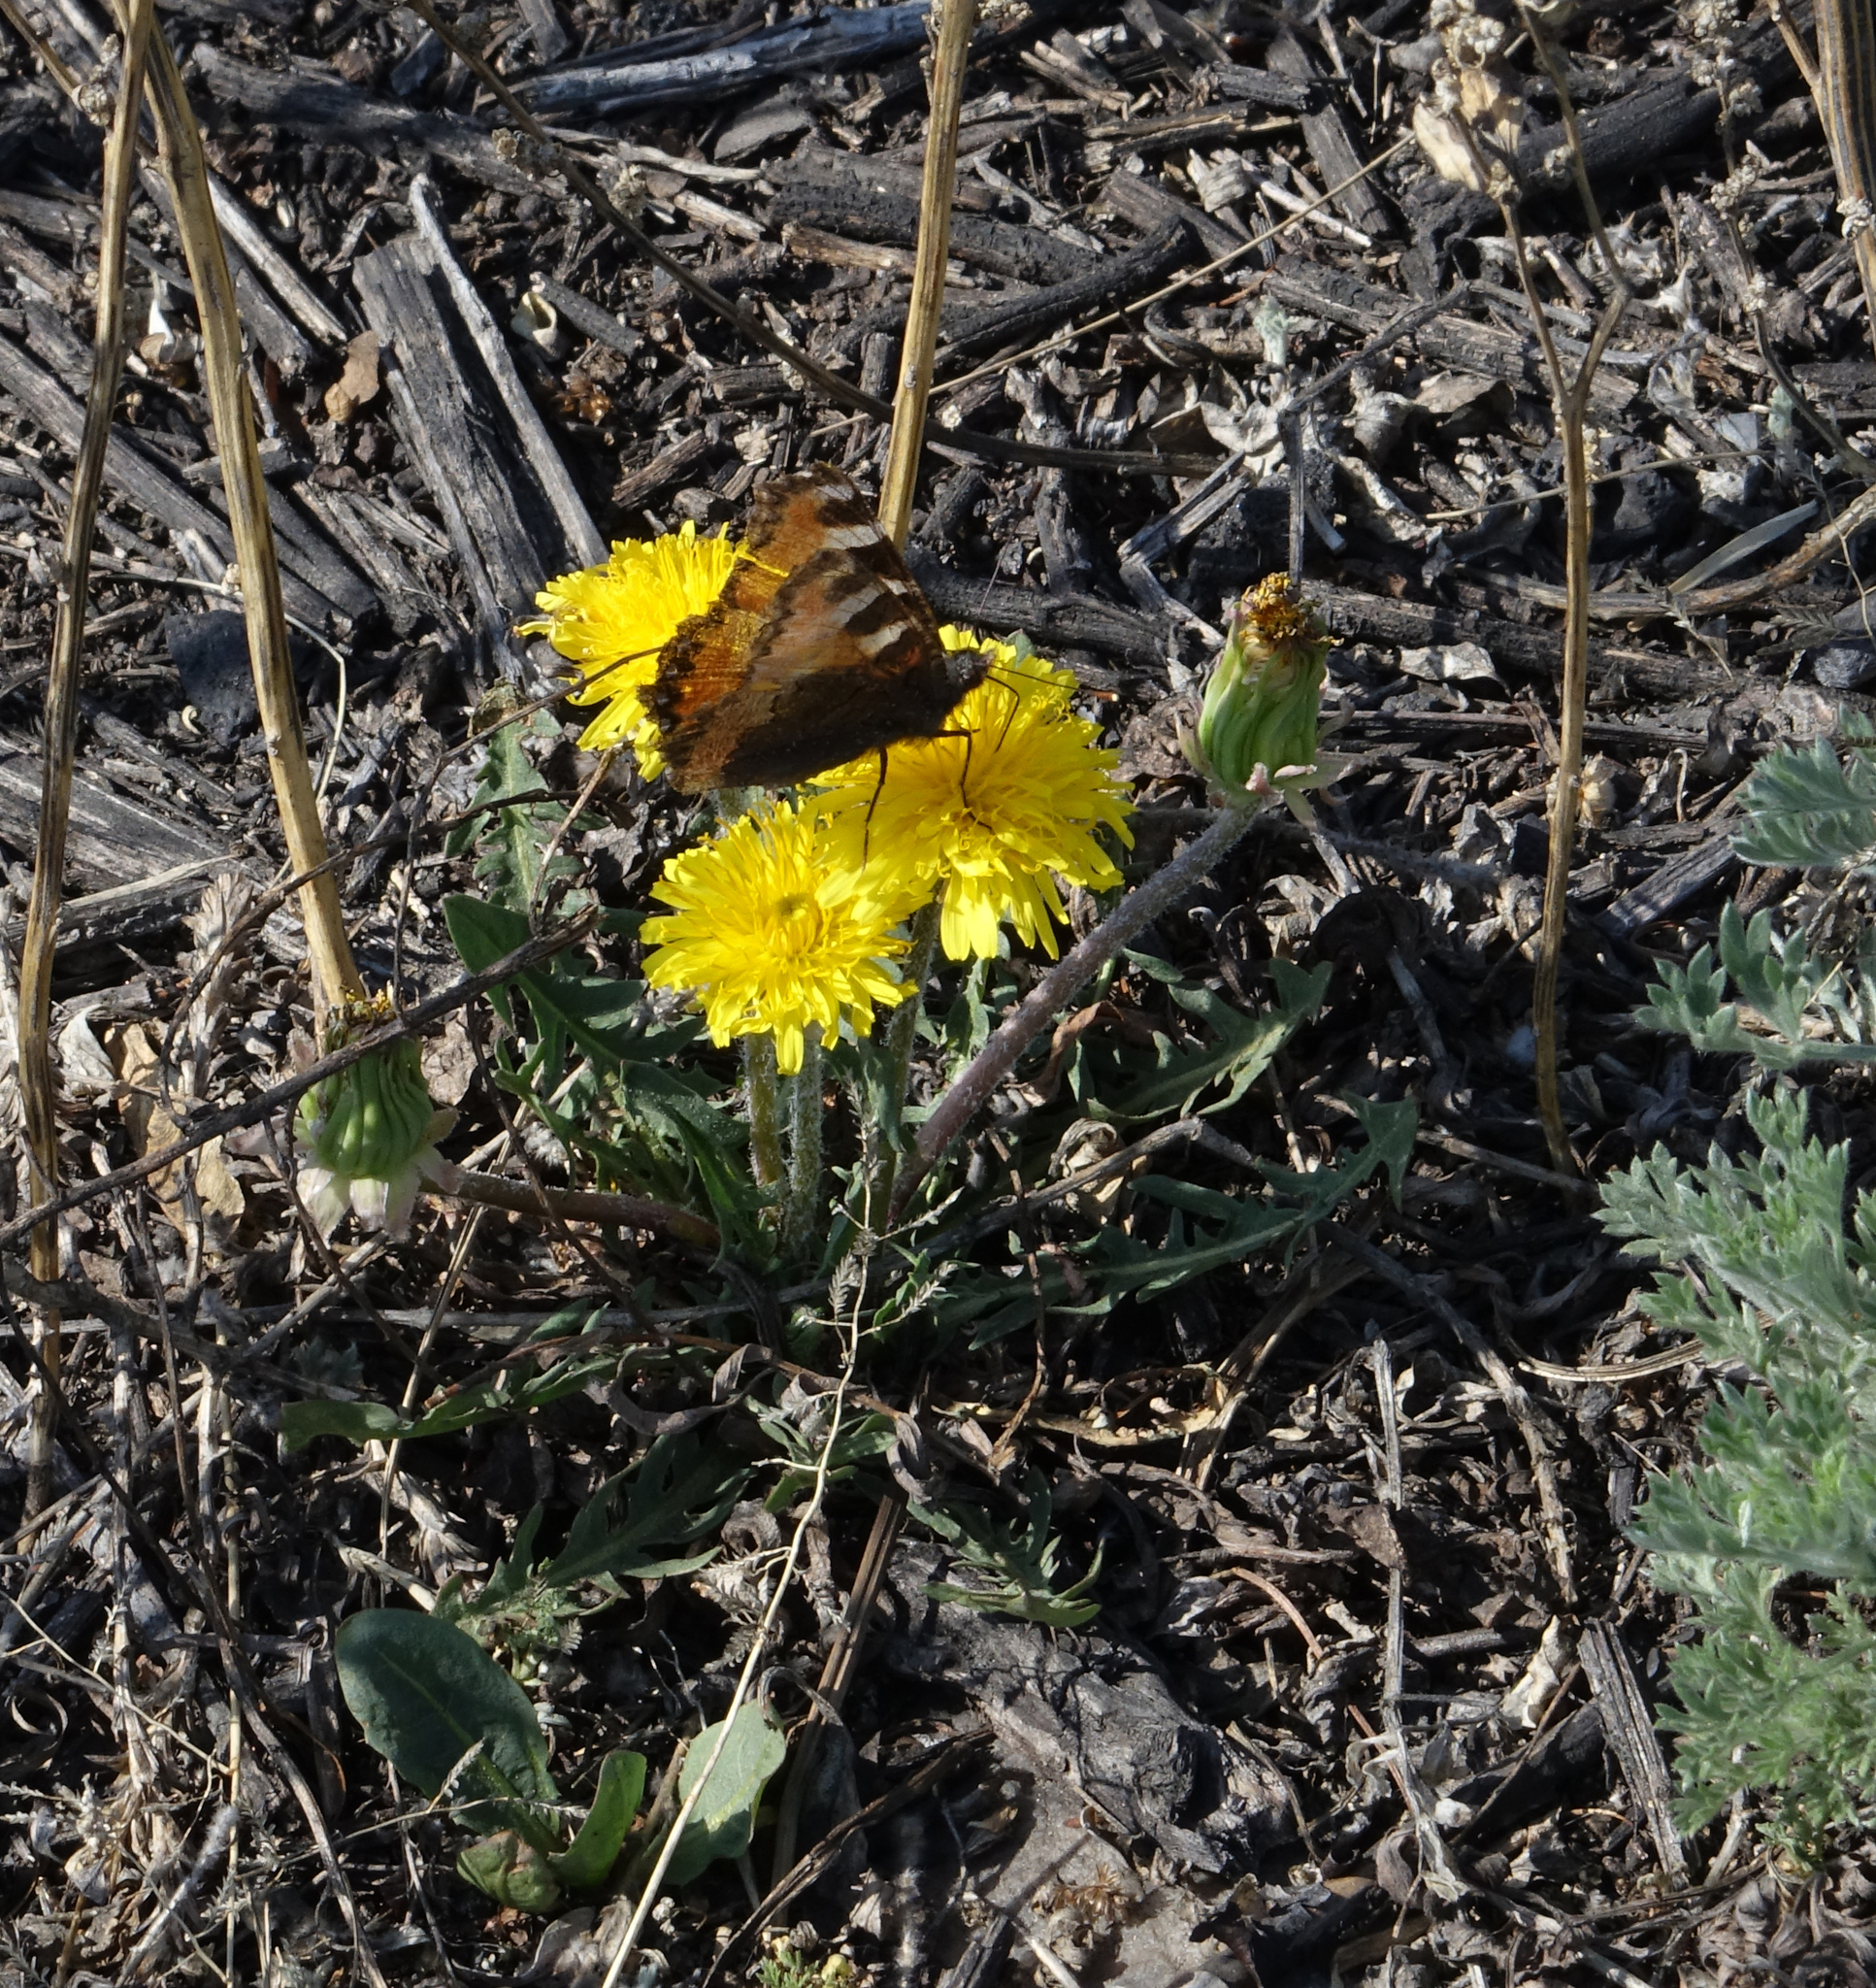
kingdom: Plantae
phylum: Tracheophyta
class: Magnoliopsida
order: Asterales
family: Asteraceae
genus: Taraxacum
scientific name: Taraxacum officinale
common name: Common dandelion
